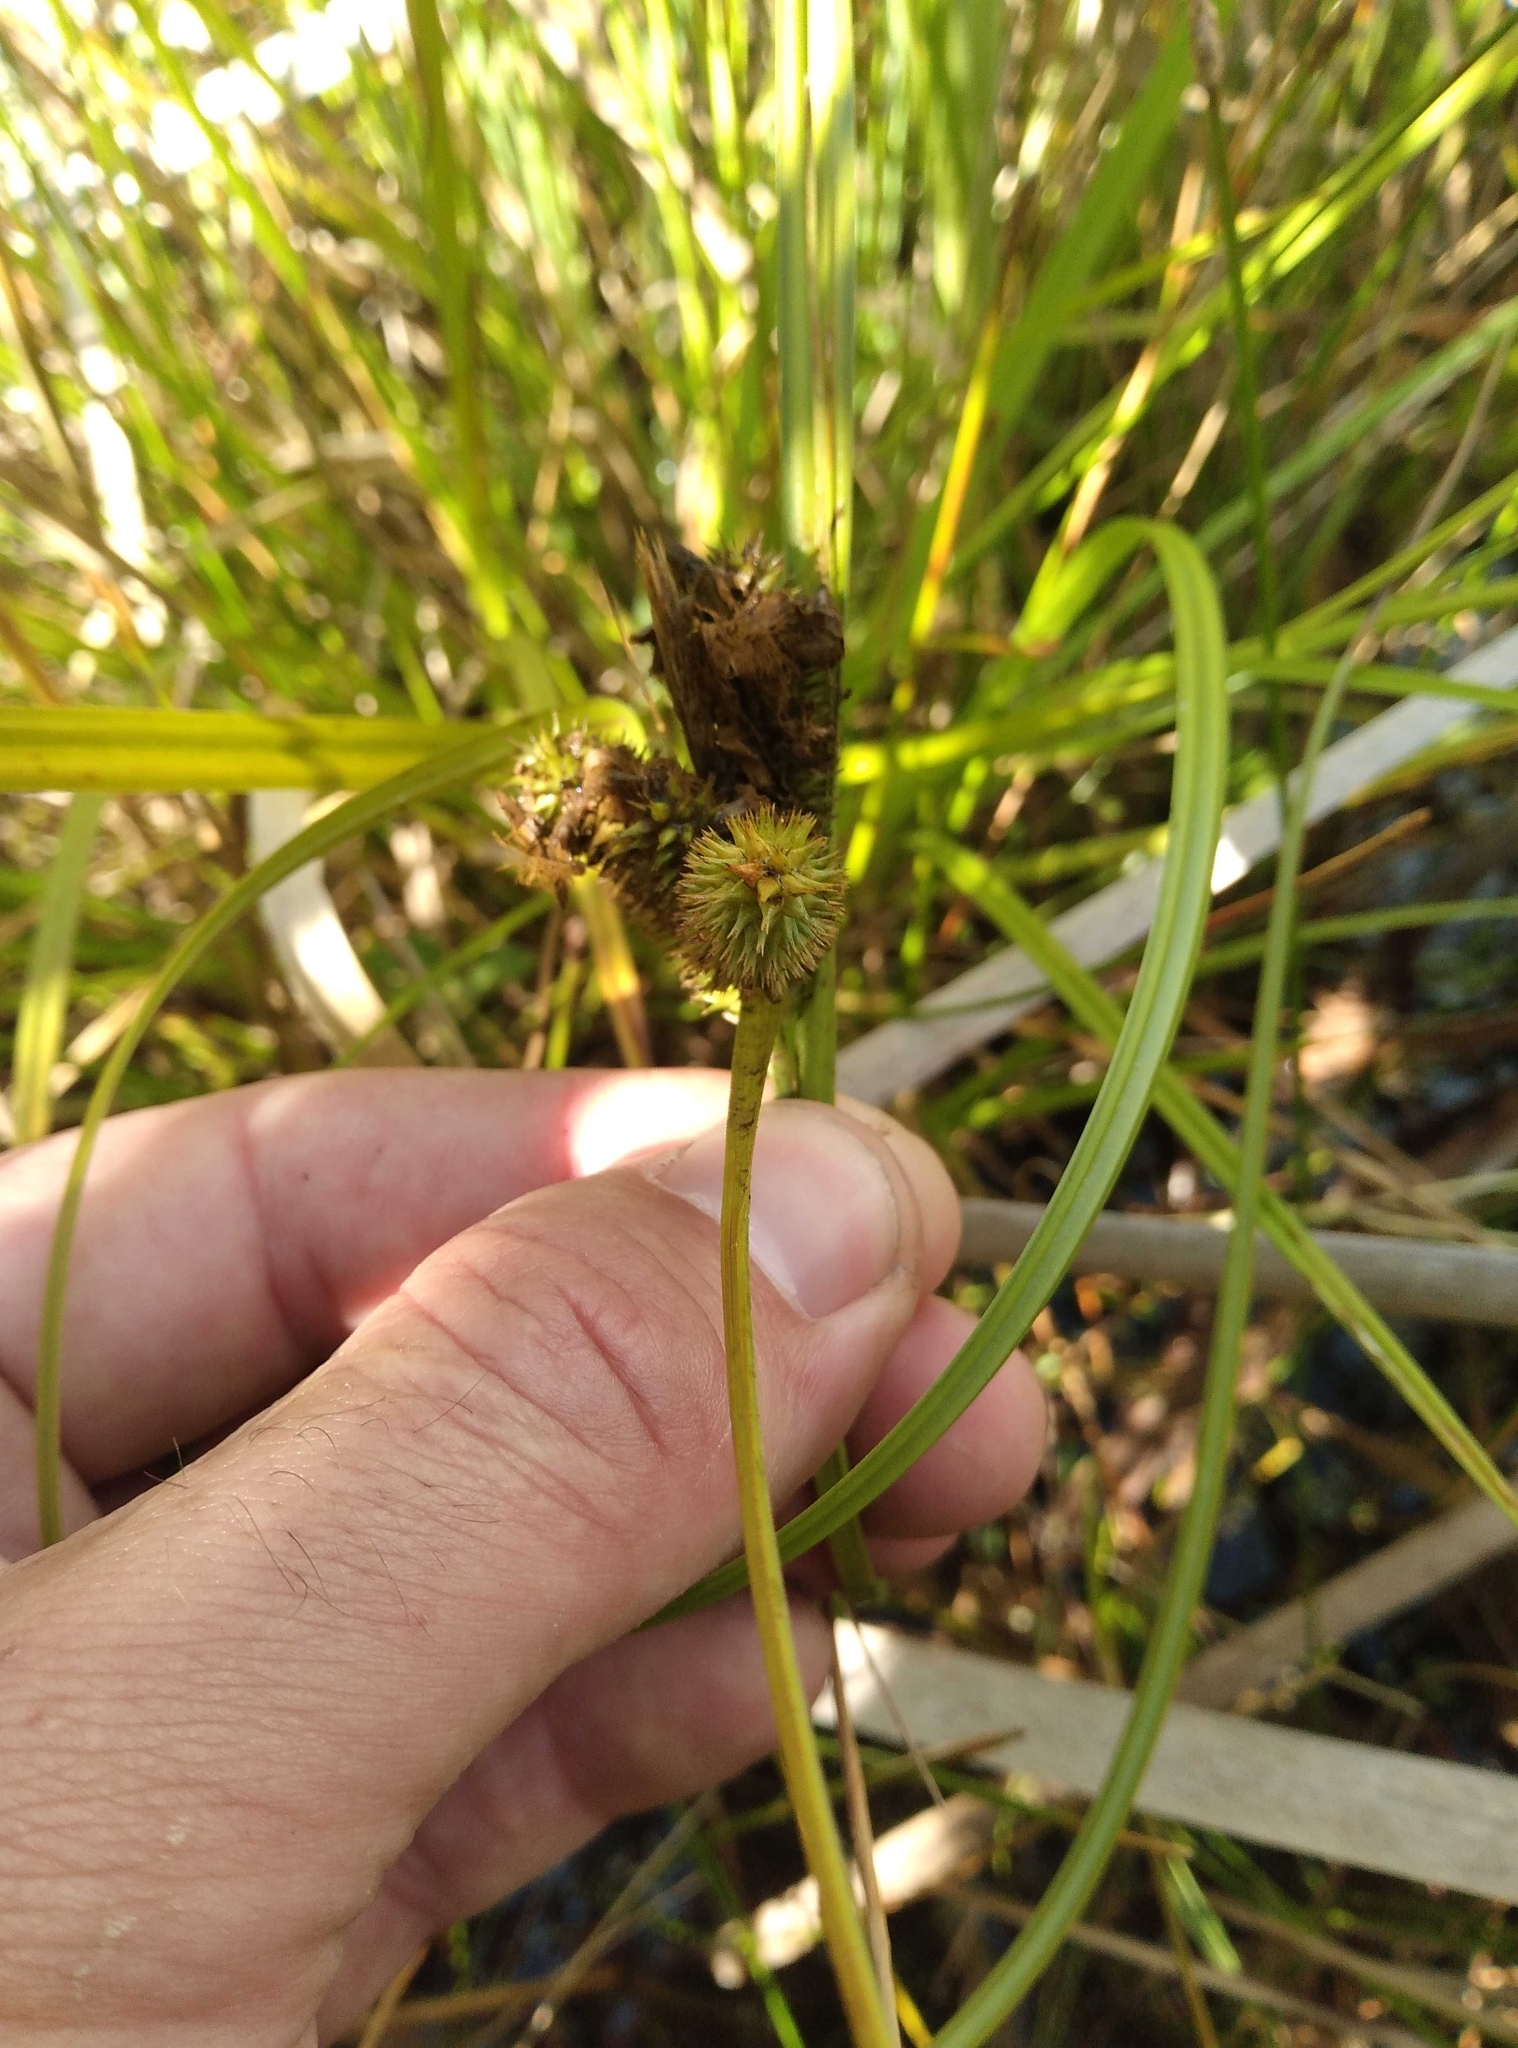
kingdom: Plantae
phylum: Tracheophyta
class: Liliopsida
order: Poales
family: Cyperaceae
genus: Carex
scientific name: Carex maorica
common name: Maori sedge
